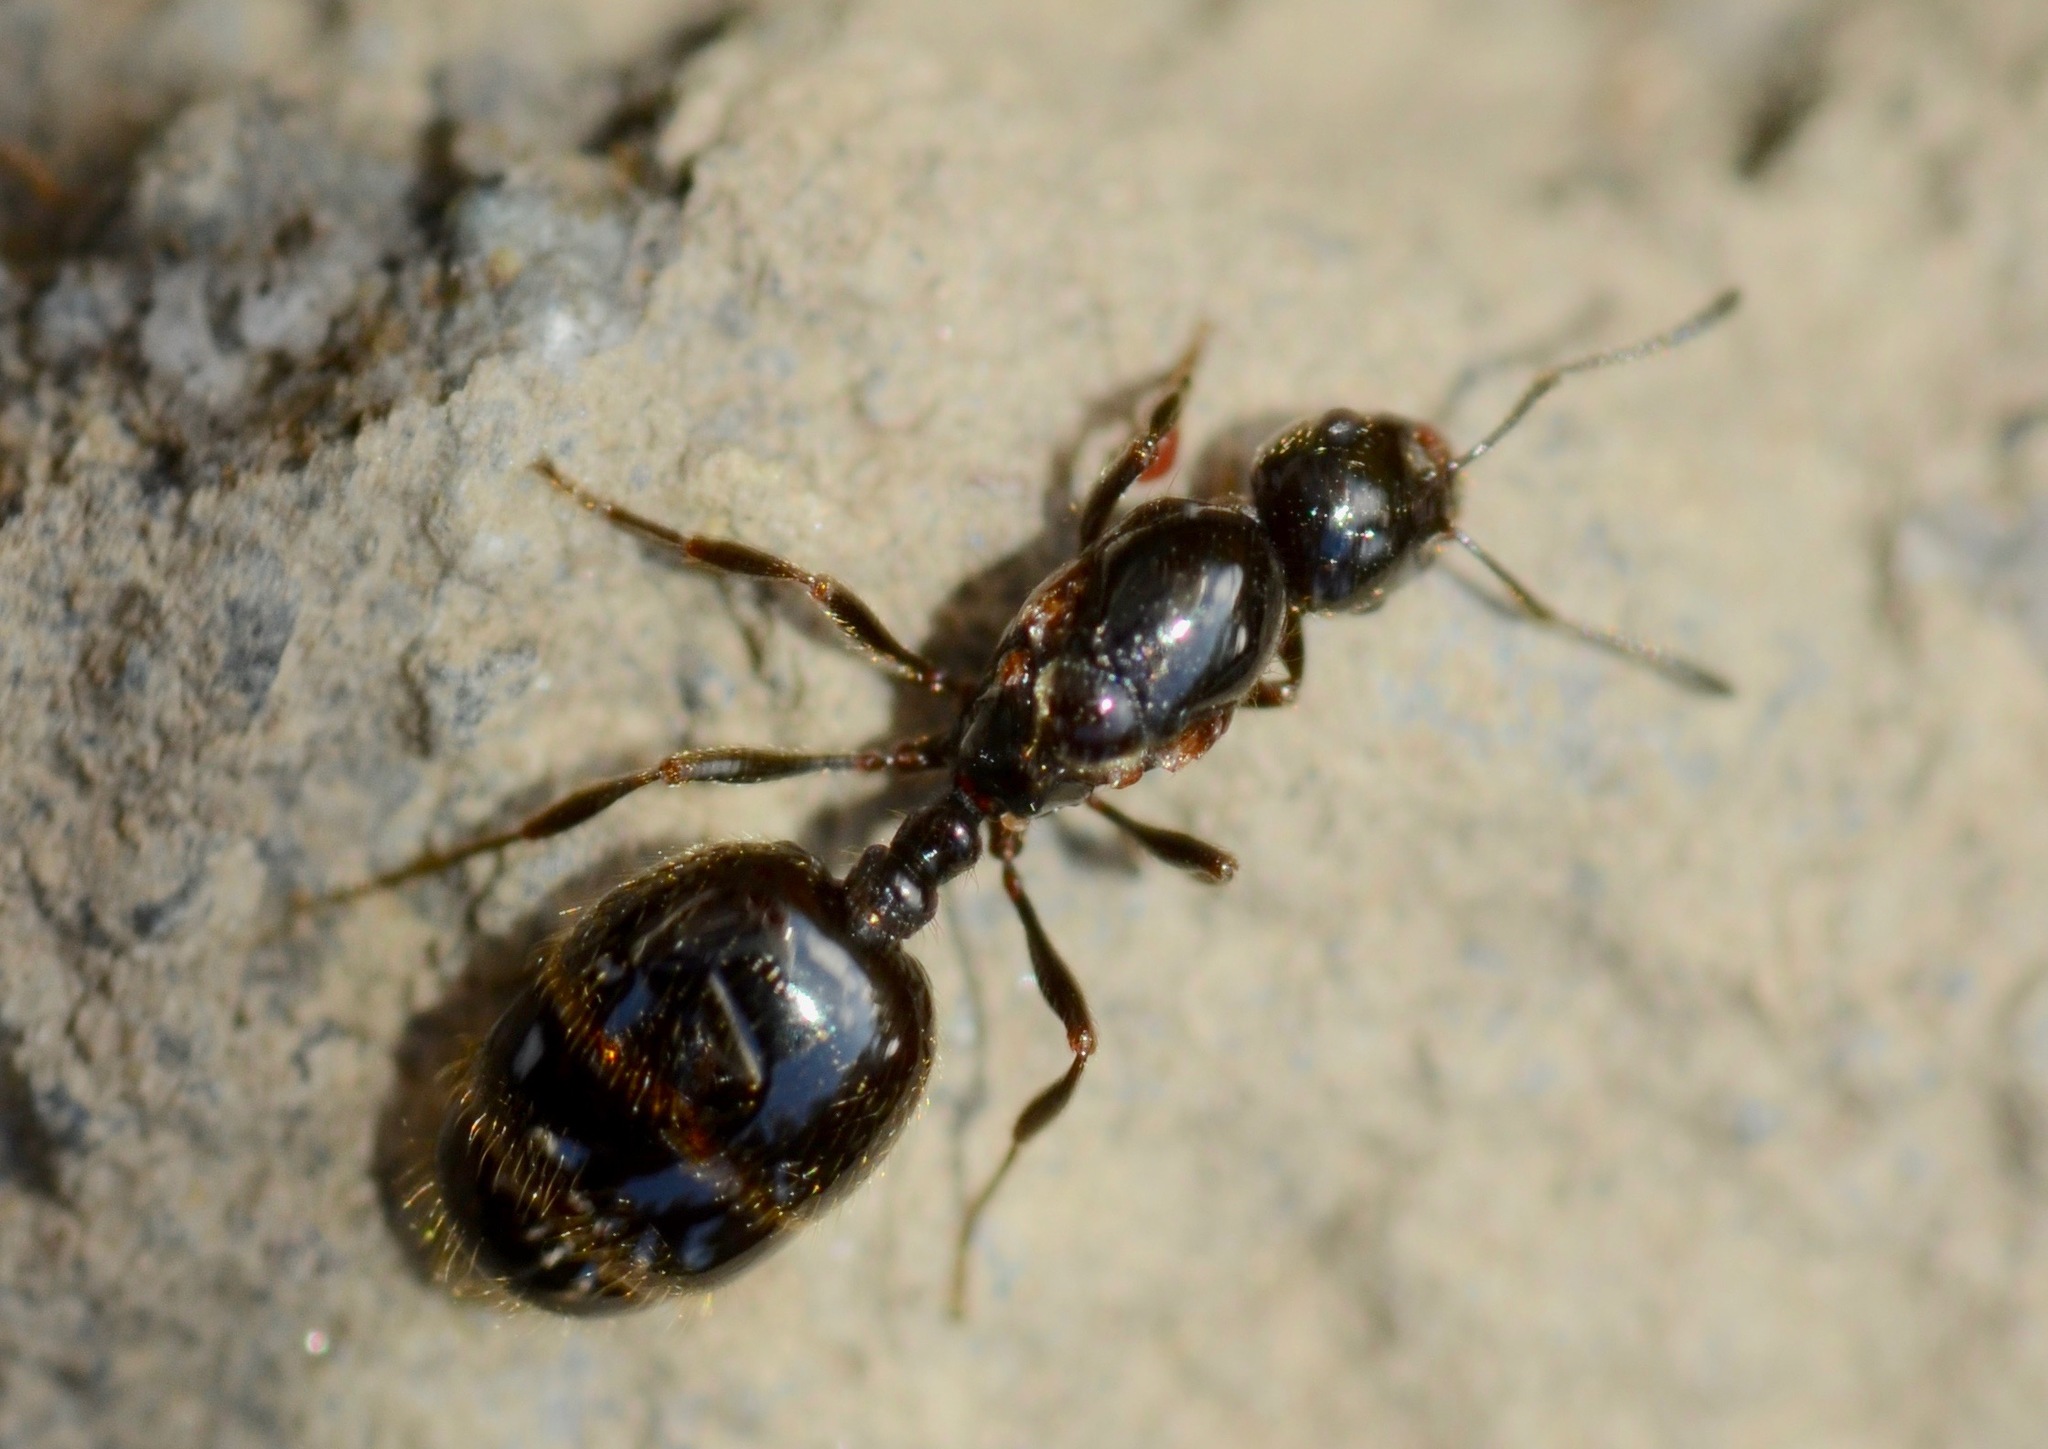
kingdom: Animalia
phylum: Arthropoda
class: Insecta
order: Hymenoptera
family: Formicidae
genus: Monomorium
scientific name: Monomorium antarcticum
